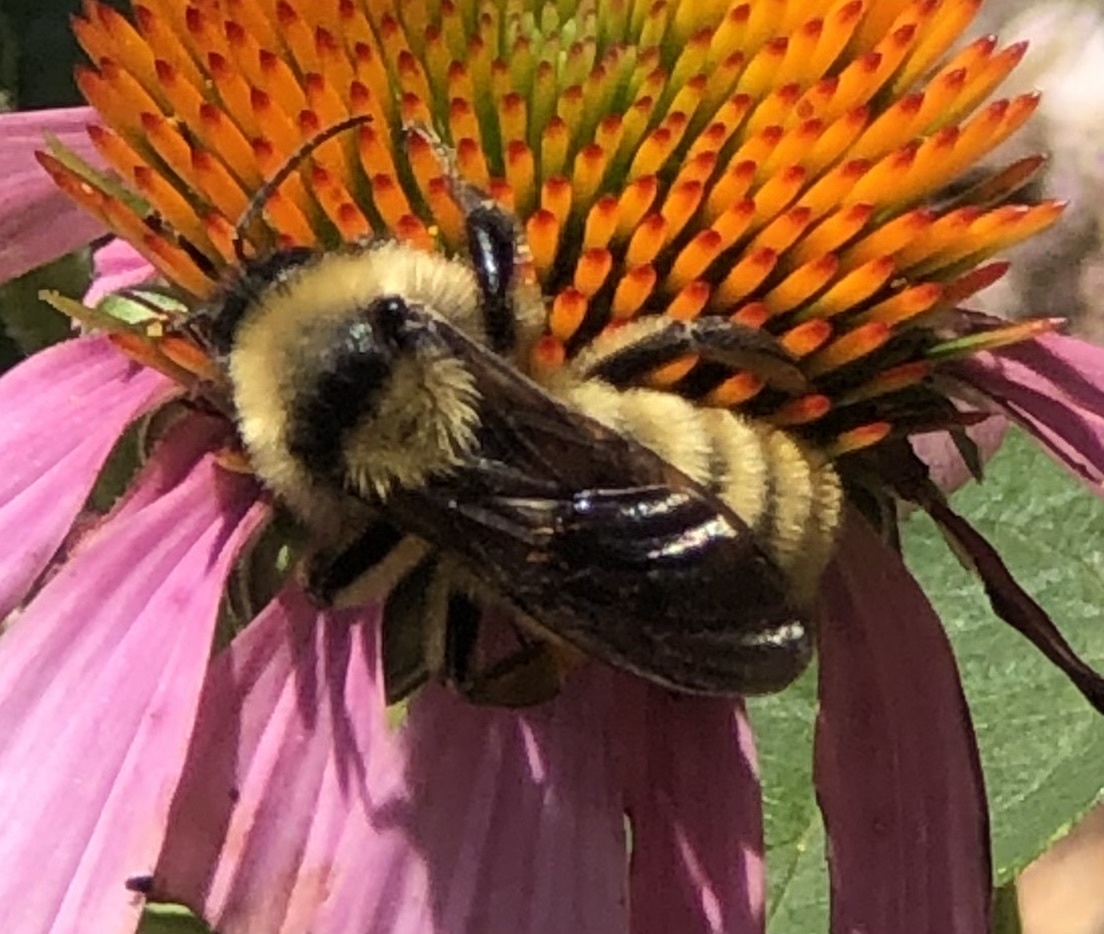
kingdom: Animalia
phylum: Arthropoda
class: Insecta
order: Hymenoptera
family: Apidae
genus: Bombus
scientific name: Bombus pensylvanicus
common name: Bumble bee
